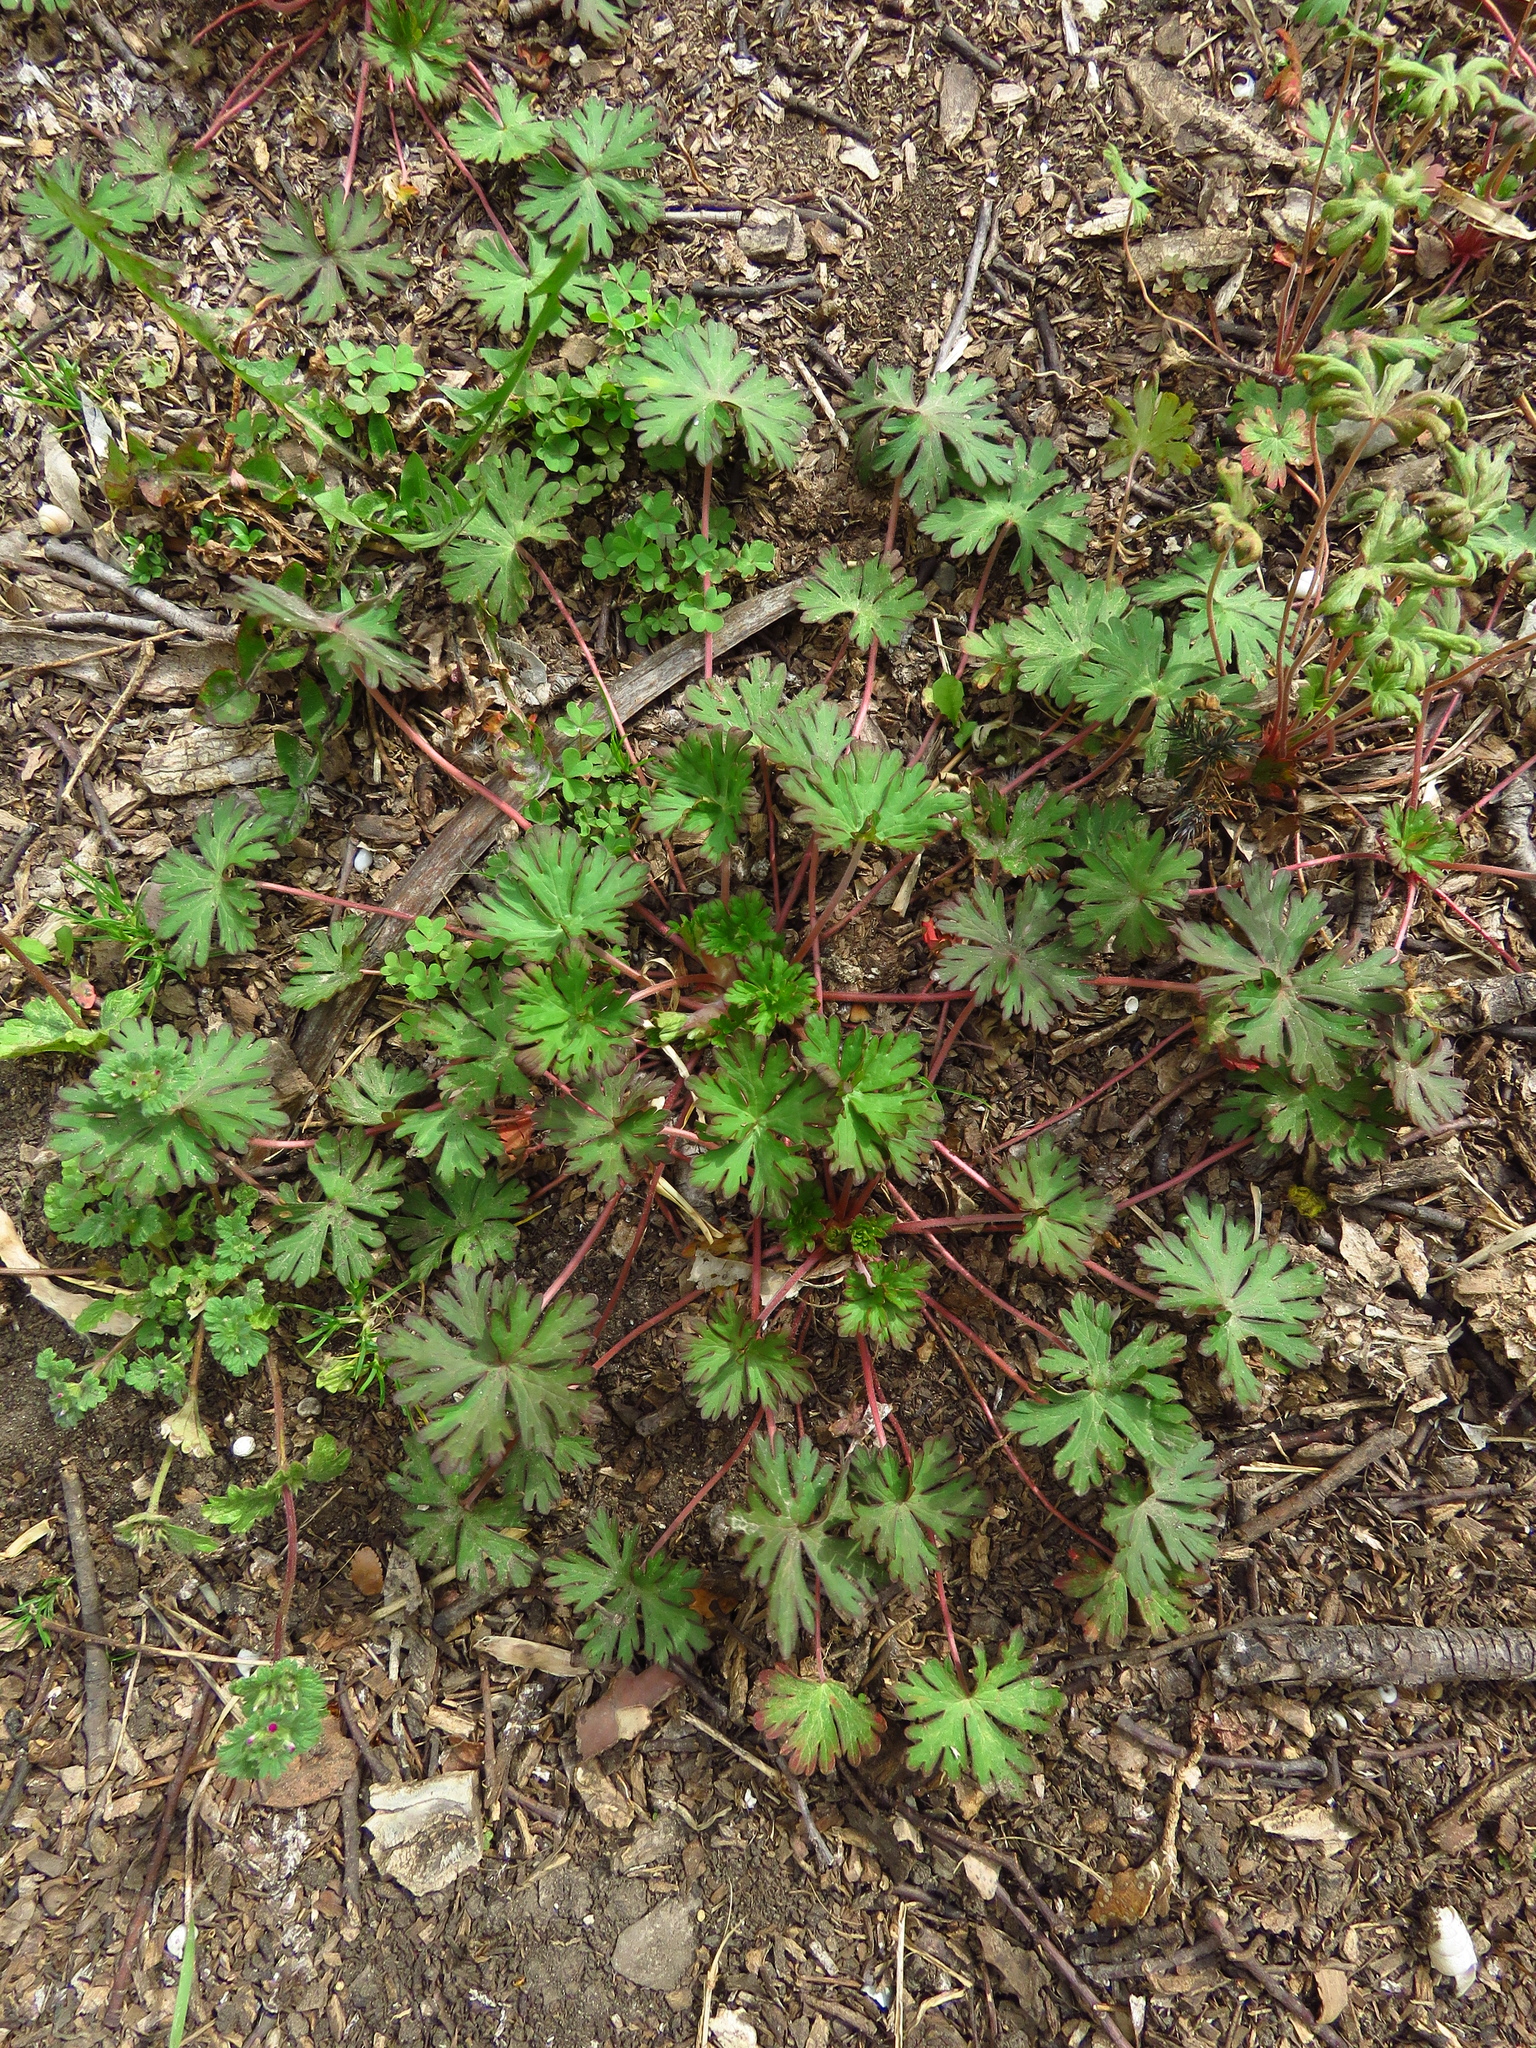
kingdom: Plantae
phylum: Tracheophyta
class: Magnoliopsida
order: Geraniales
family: Geraniaceae
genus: Geranium
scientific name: Geranium carolinianum
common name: Carolina crane's-bill
